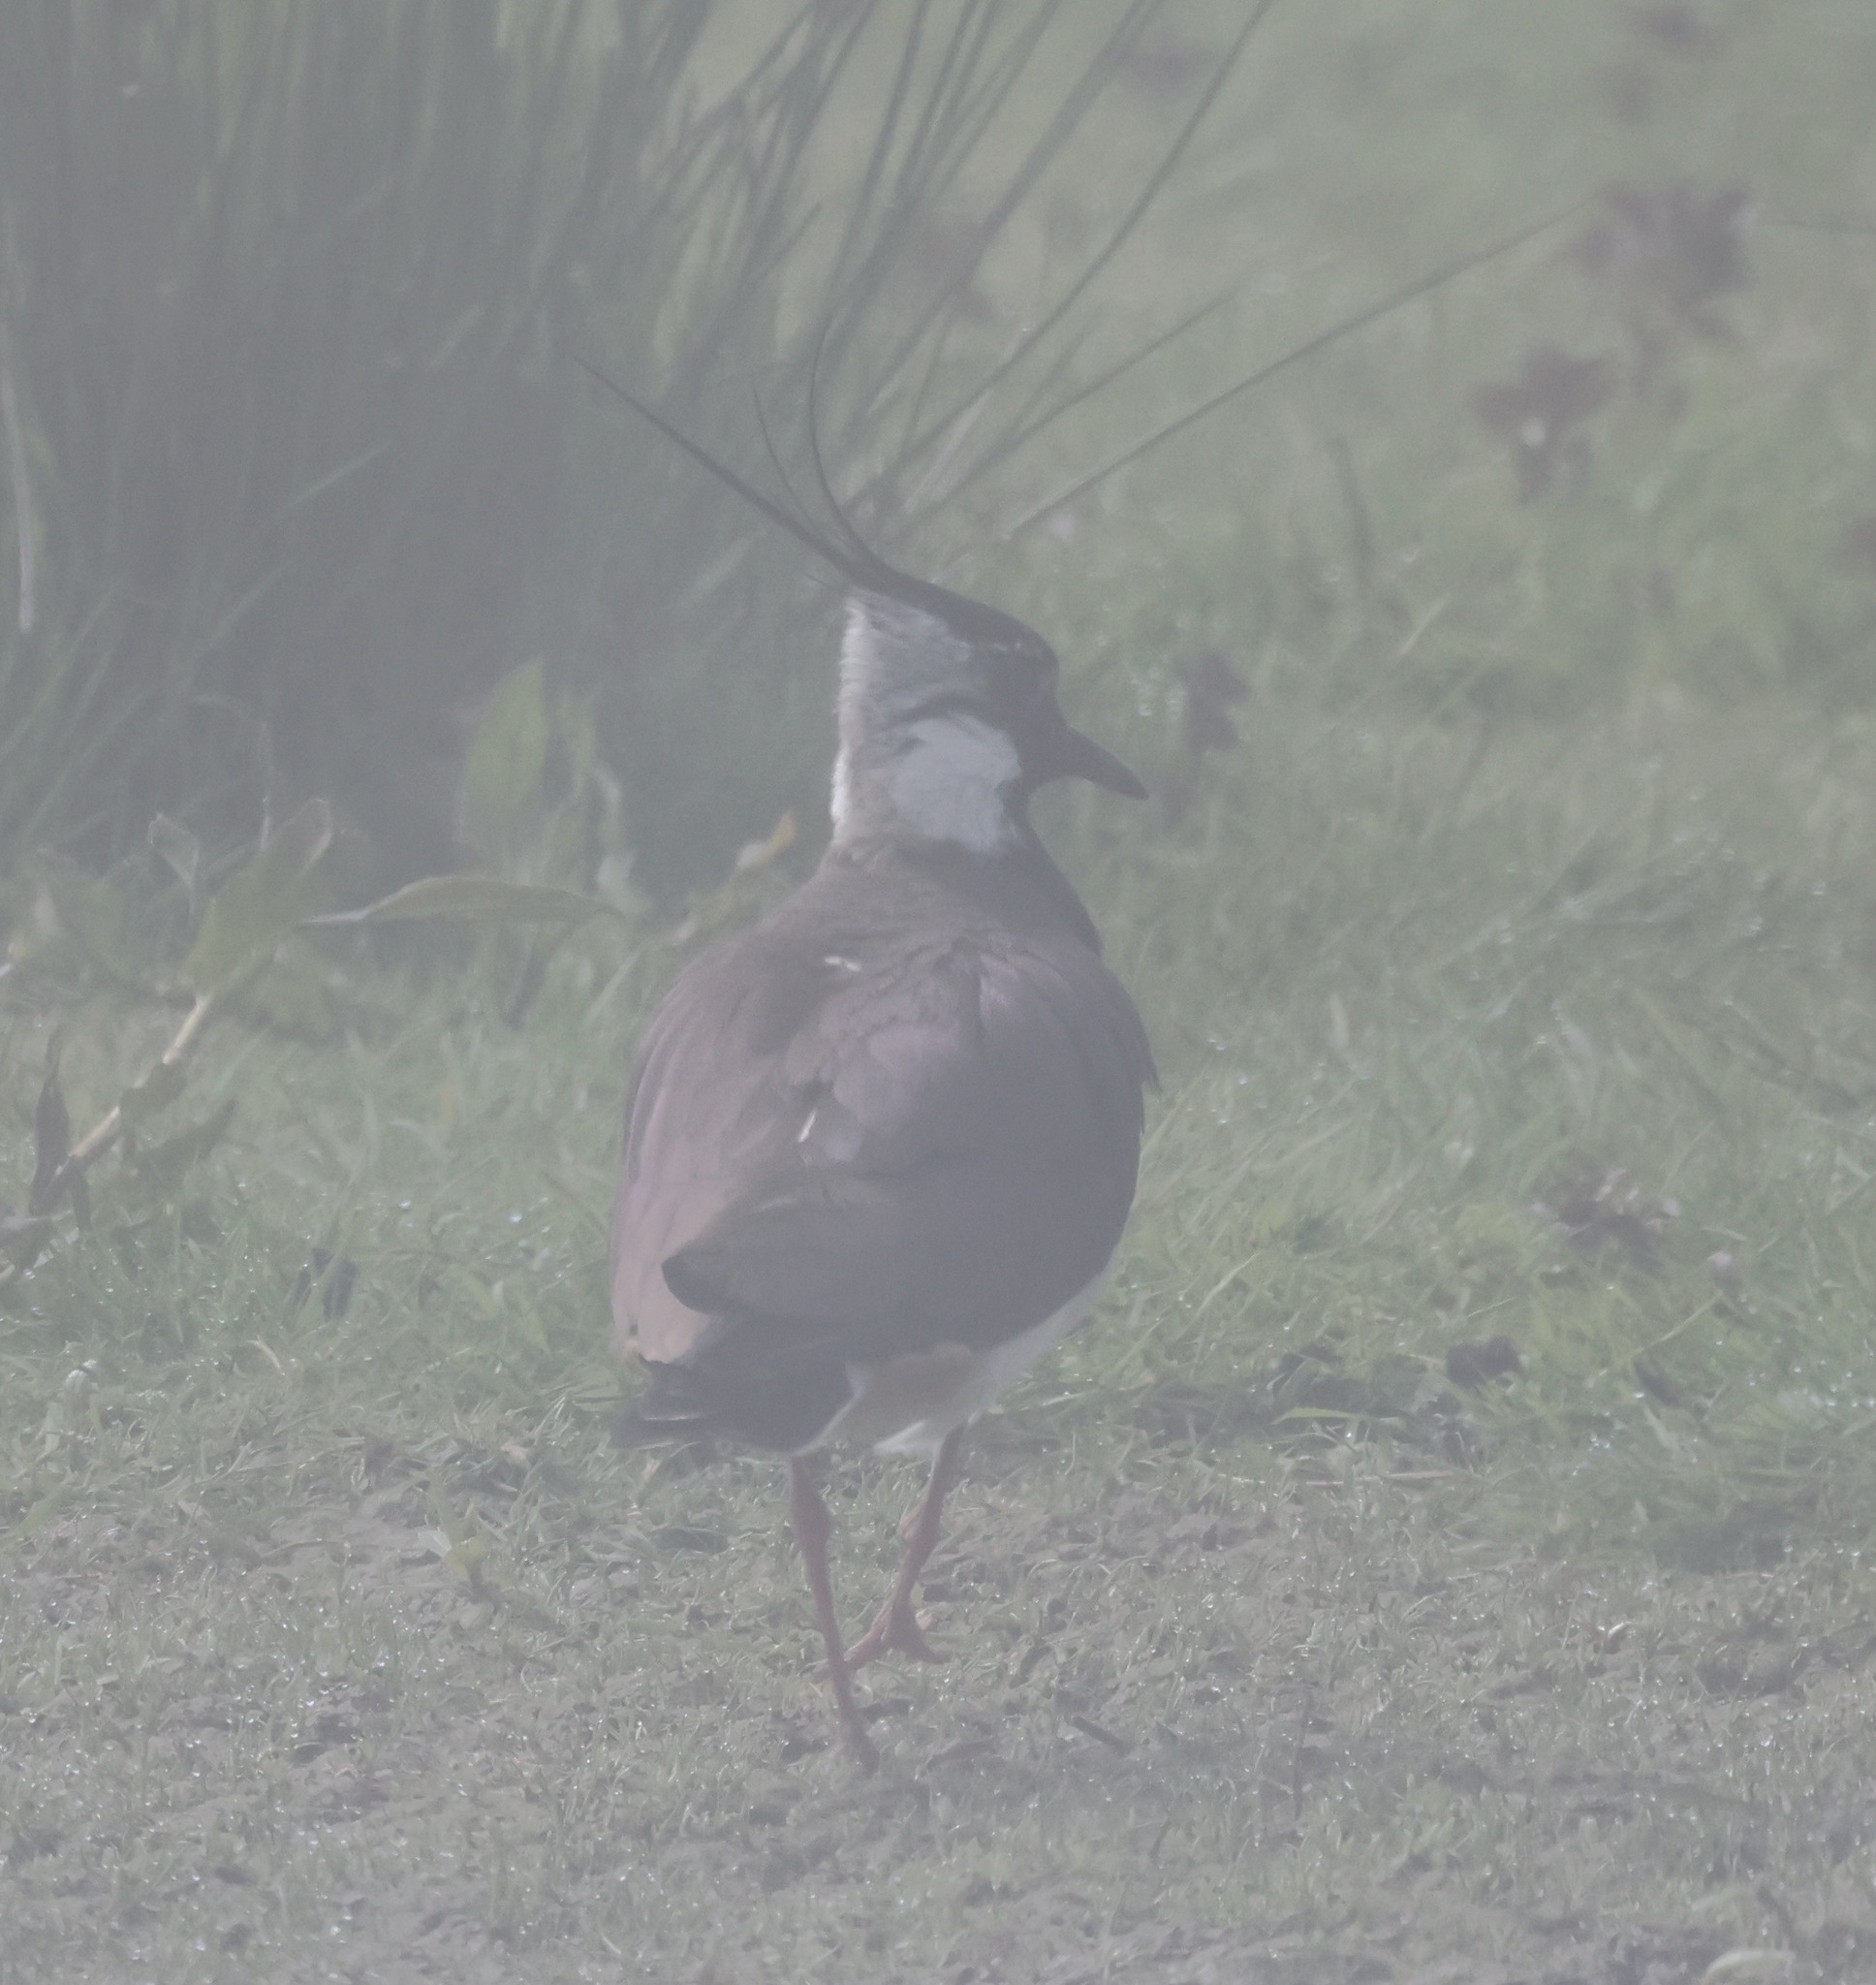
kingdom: Animalia
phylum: Chordata
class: Aves
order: Charadriiformes
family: Charadriidae
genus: Vanellus
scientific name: Vanellus vanellus
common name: Northern lapwing
